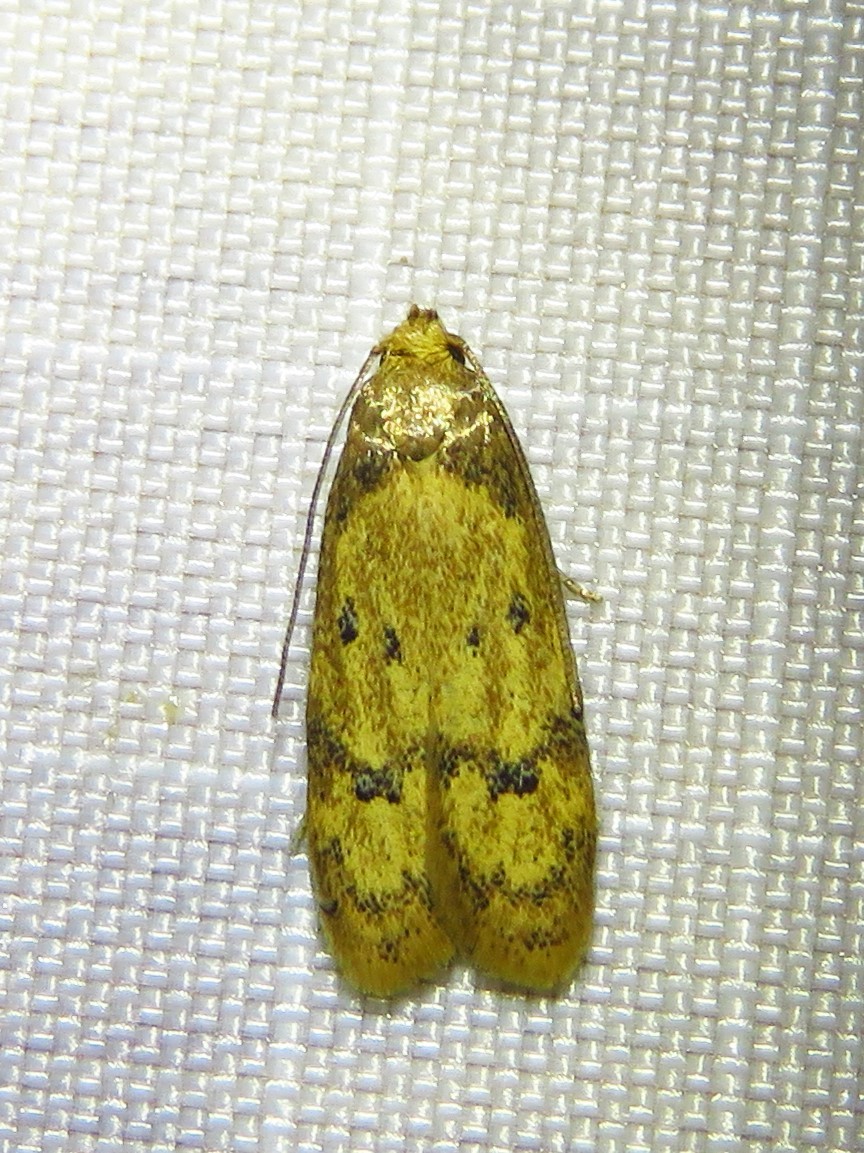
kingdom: Animalia
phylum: Arthropoda
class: Insecta
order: Lepidoptera
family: Autostichidae
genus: Gerdana
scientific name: Gerdana caritella
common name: Gerdana moth
